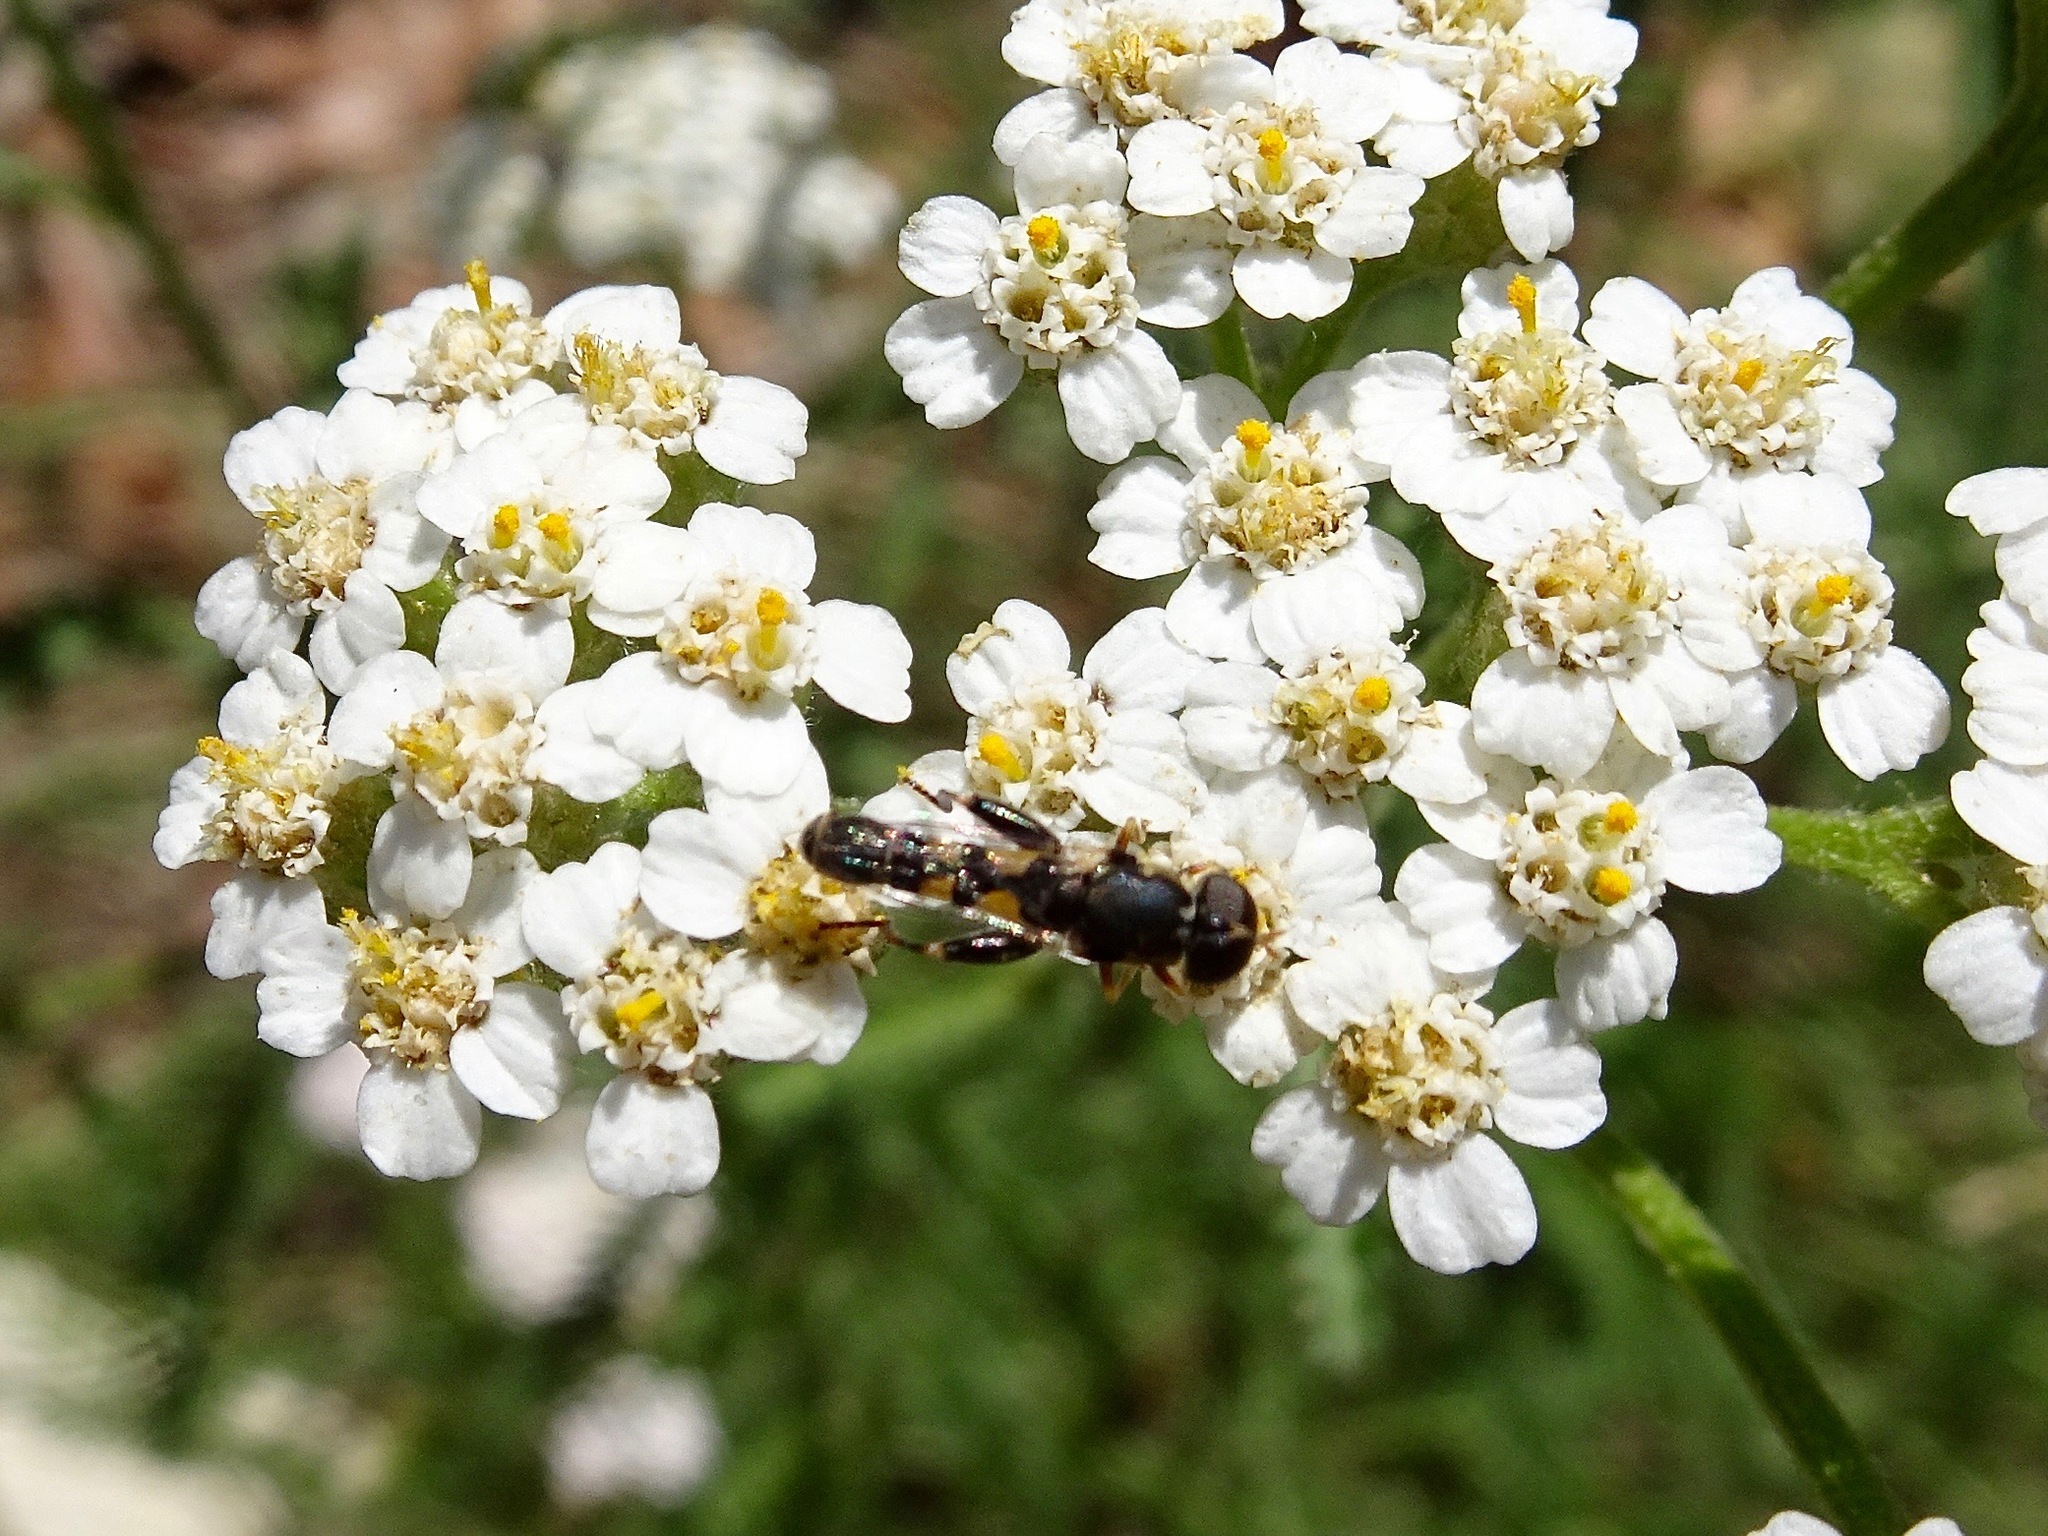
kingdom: Animalia
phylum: Arthropoda
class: Insecta
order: Diptera
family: Syrphidae
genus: Syritta
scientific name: Syritta pipiens
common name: Hover fly
